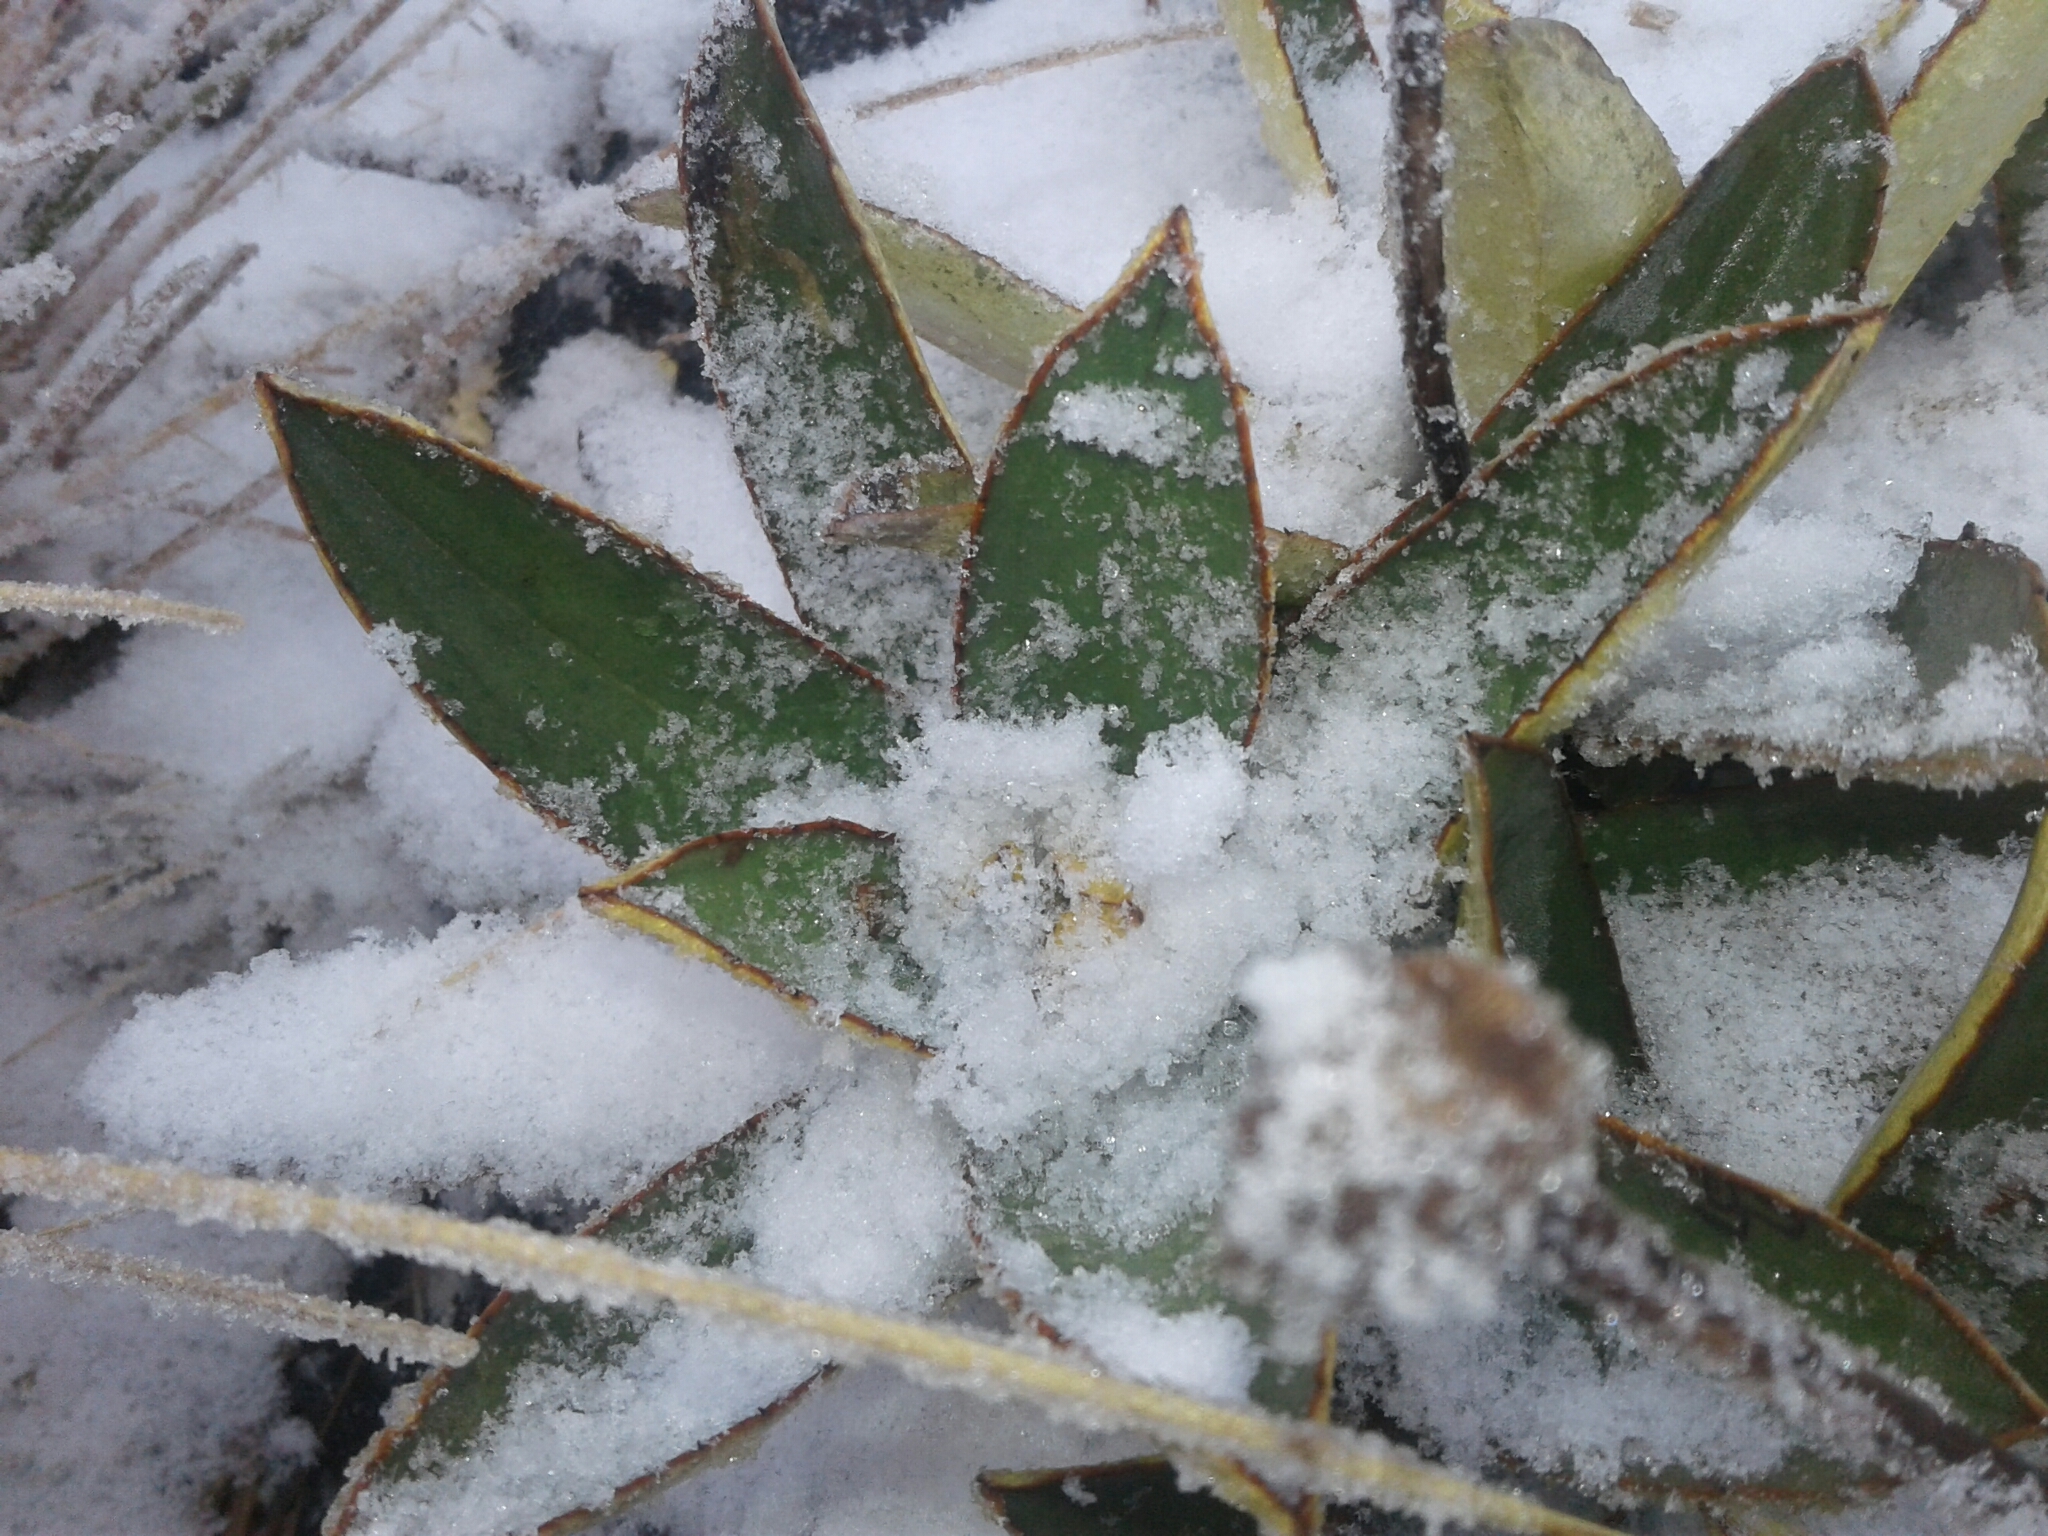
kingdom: Plantae
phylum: Tracheophyta
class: Magnoliopsida
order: Asterales
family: Asteraceae
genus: Celmisia
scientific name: Celmisia dallii
